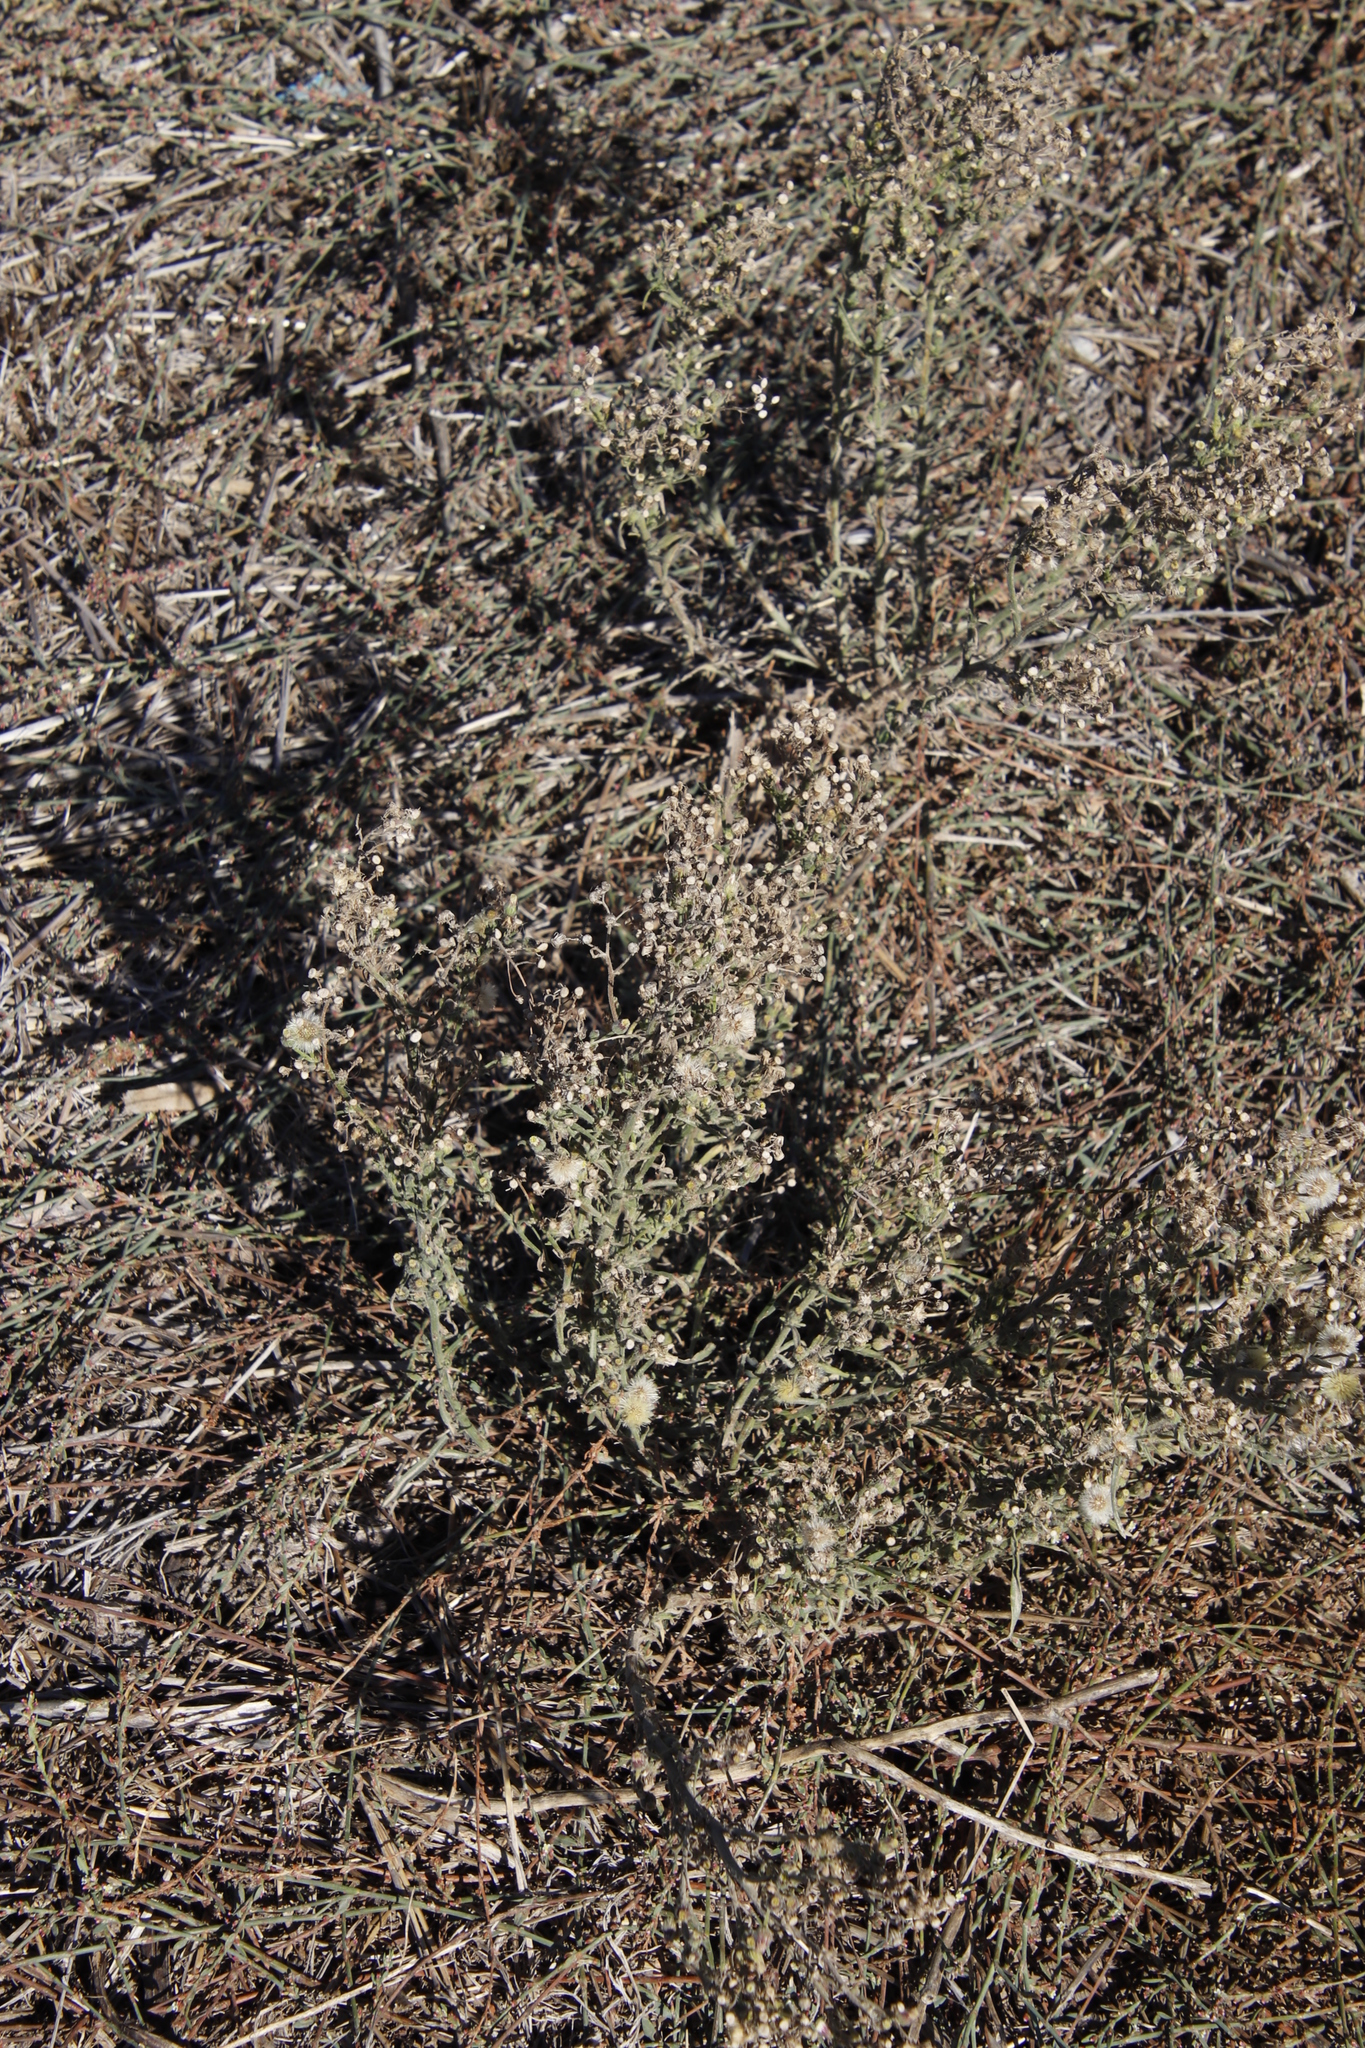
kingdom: Plantae
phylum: Tracheophyta
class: Magnoliopsida
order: Asterales
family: Asteraceae
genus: Erigeron
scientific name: Erigeron bonariensis
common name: Argentine fleabane
